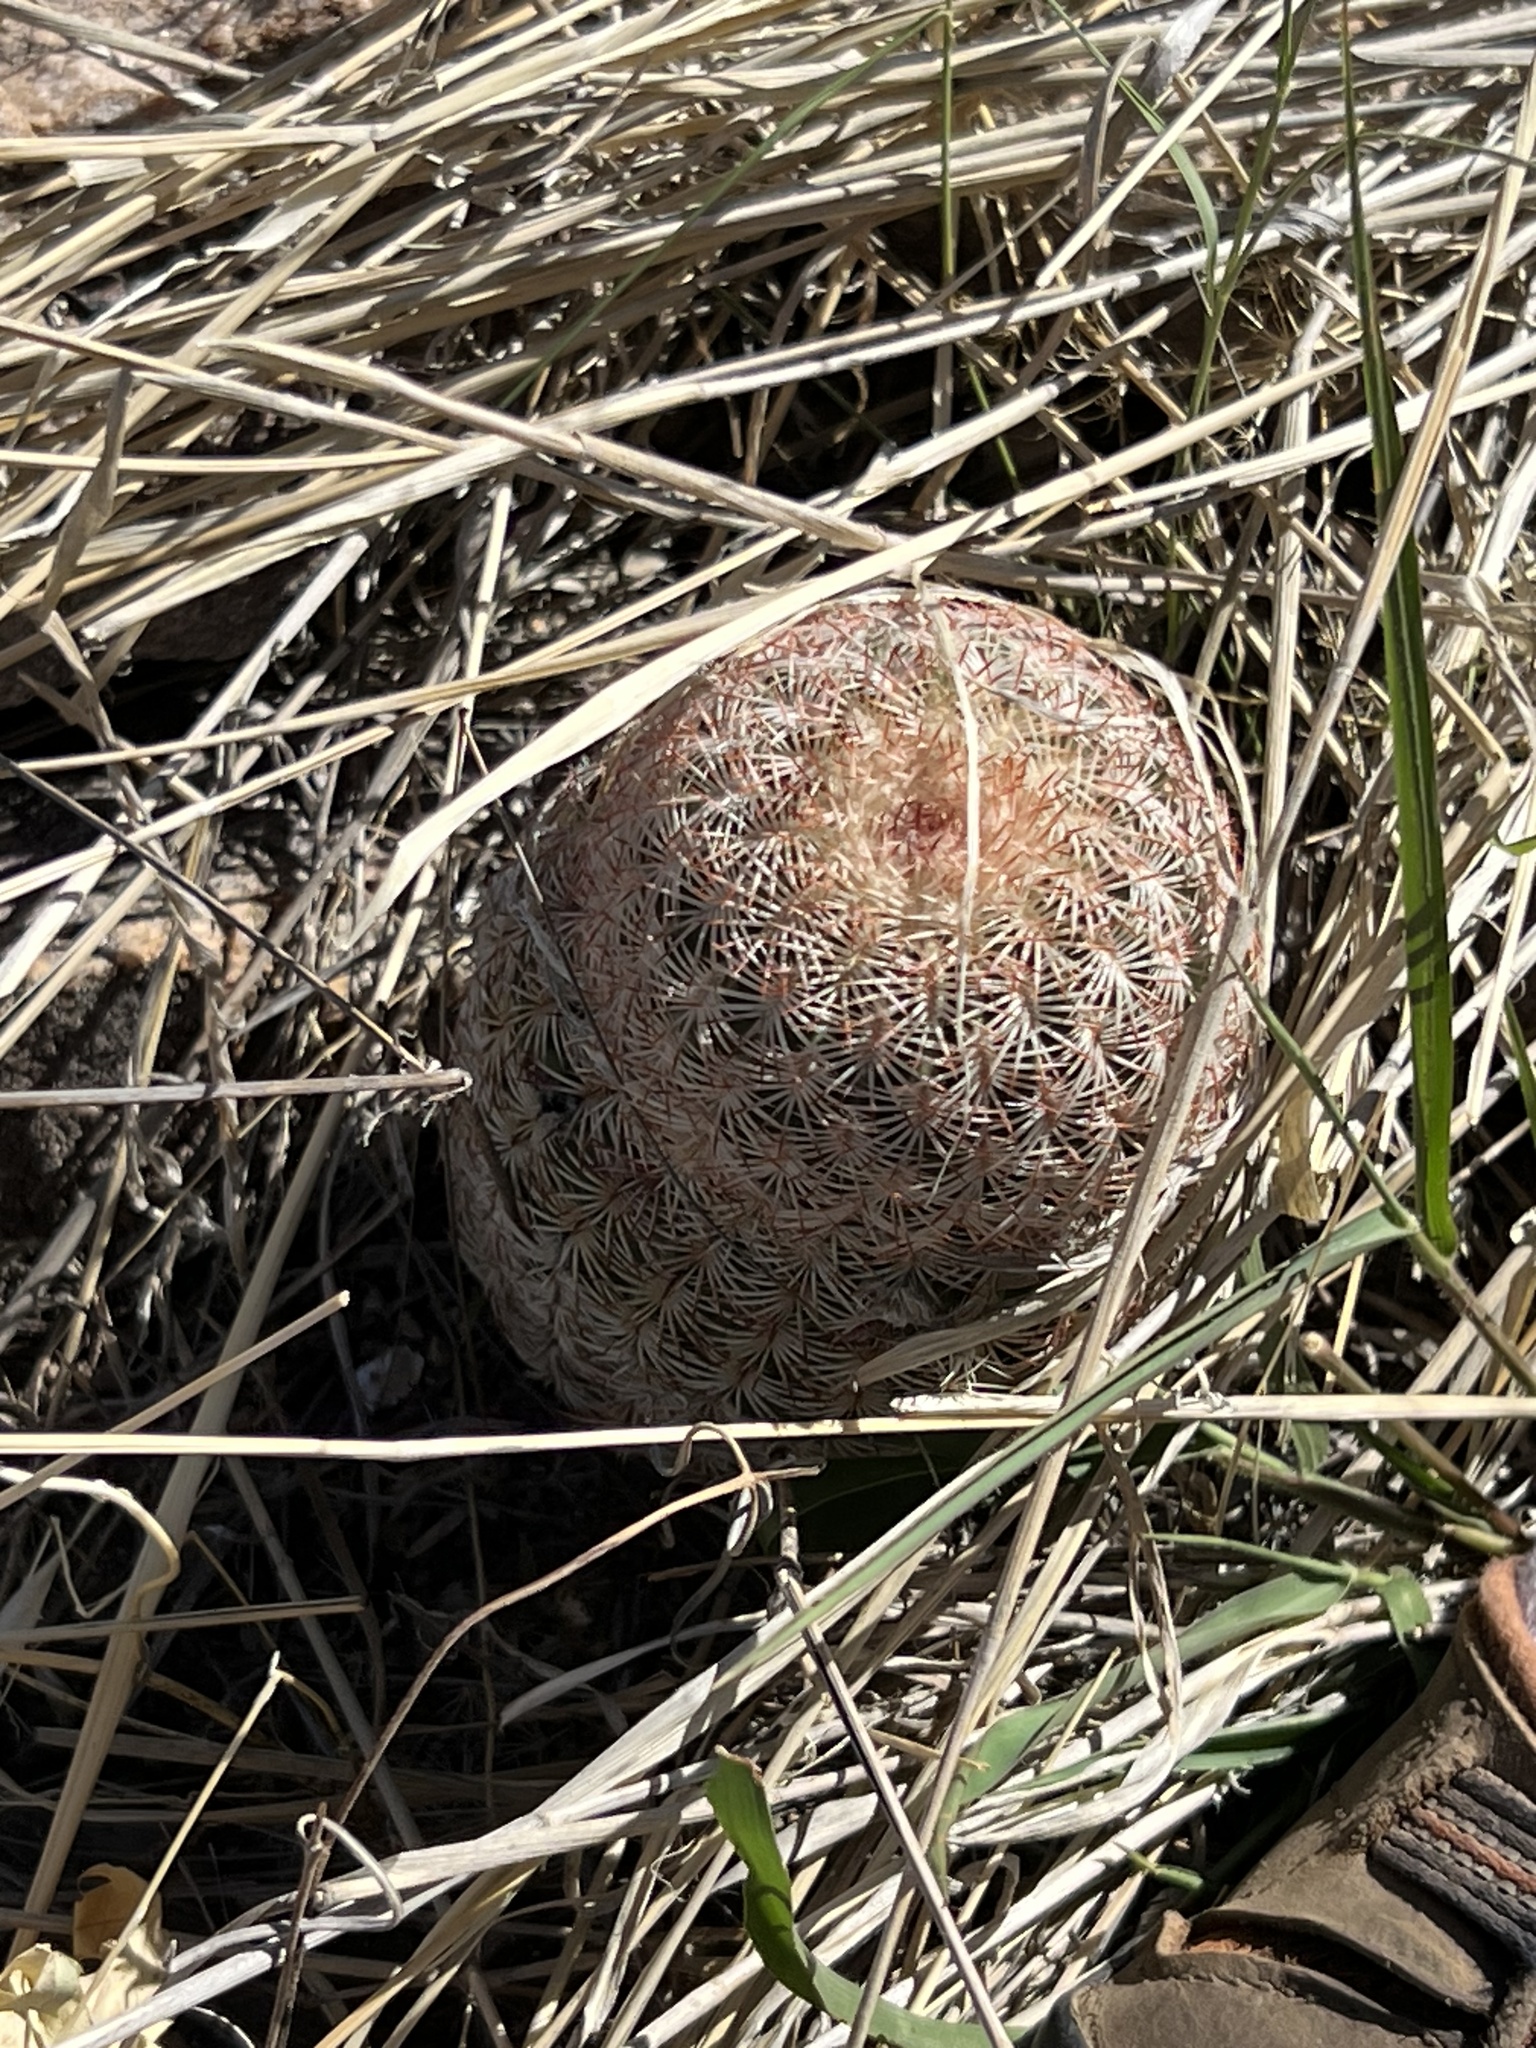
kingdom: Plantae
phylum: Tracheophyta
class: Magnoliopsida
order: Caryophyllales
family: Cactaceae
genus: Echinocereus
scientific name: Echinocereus rigidissimus
